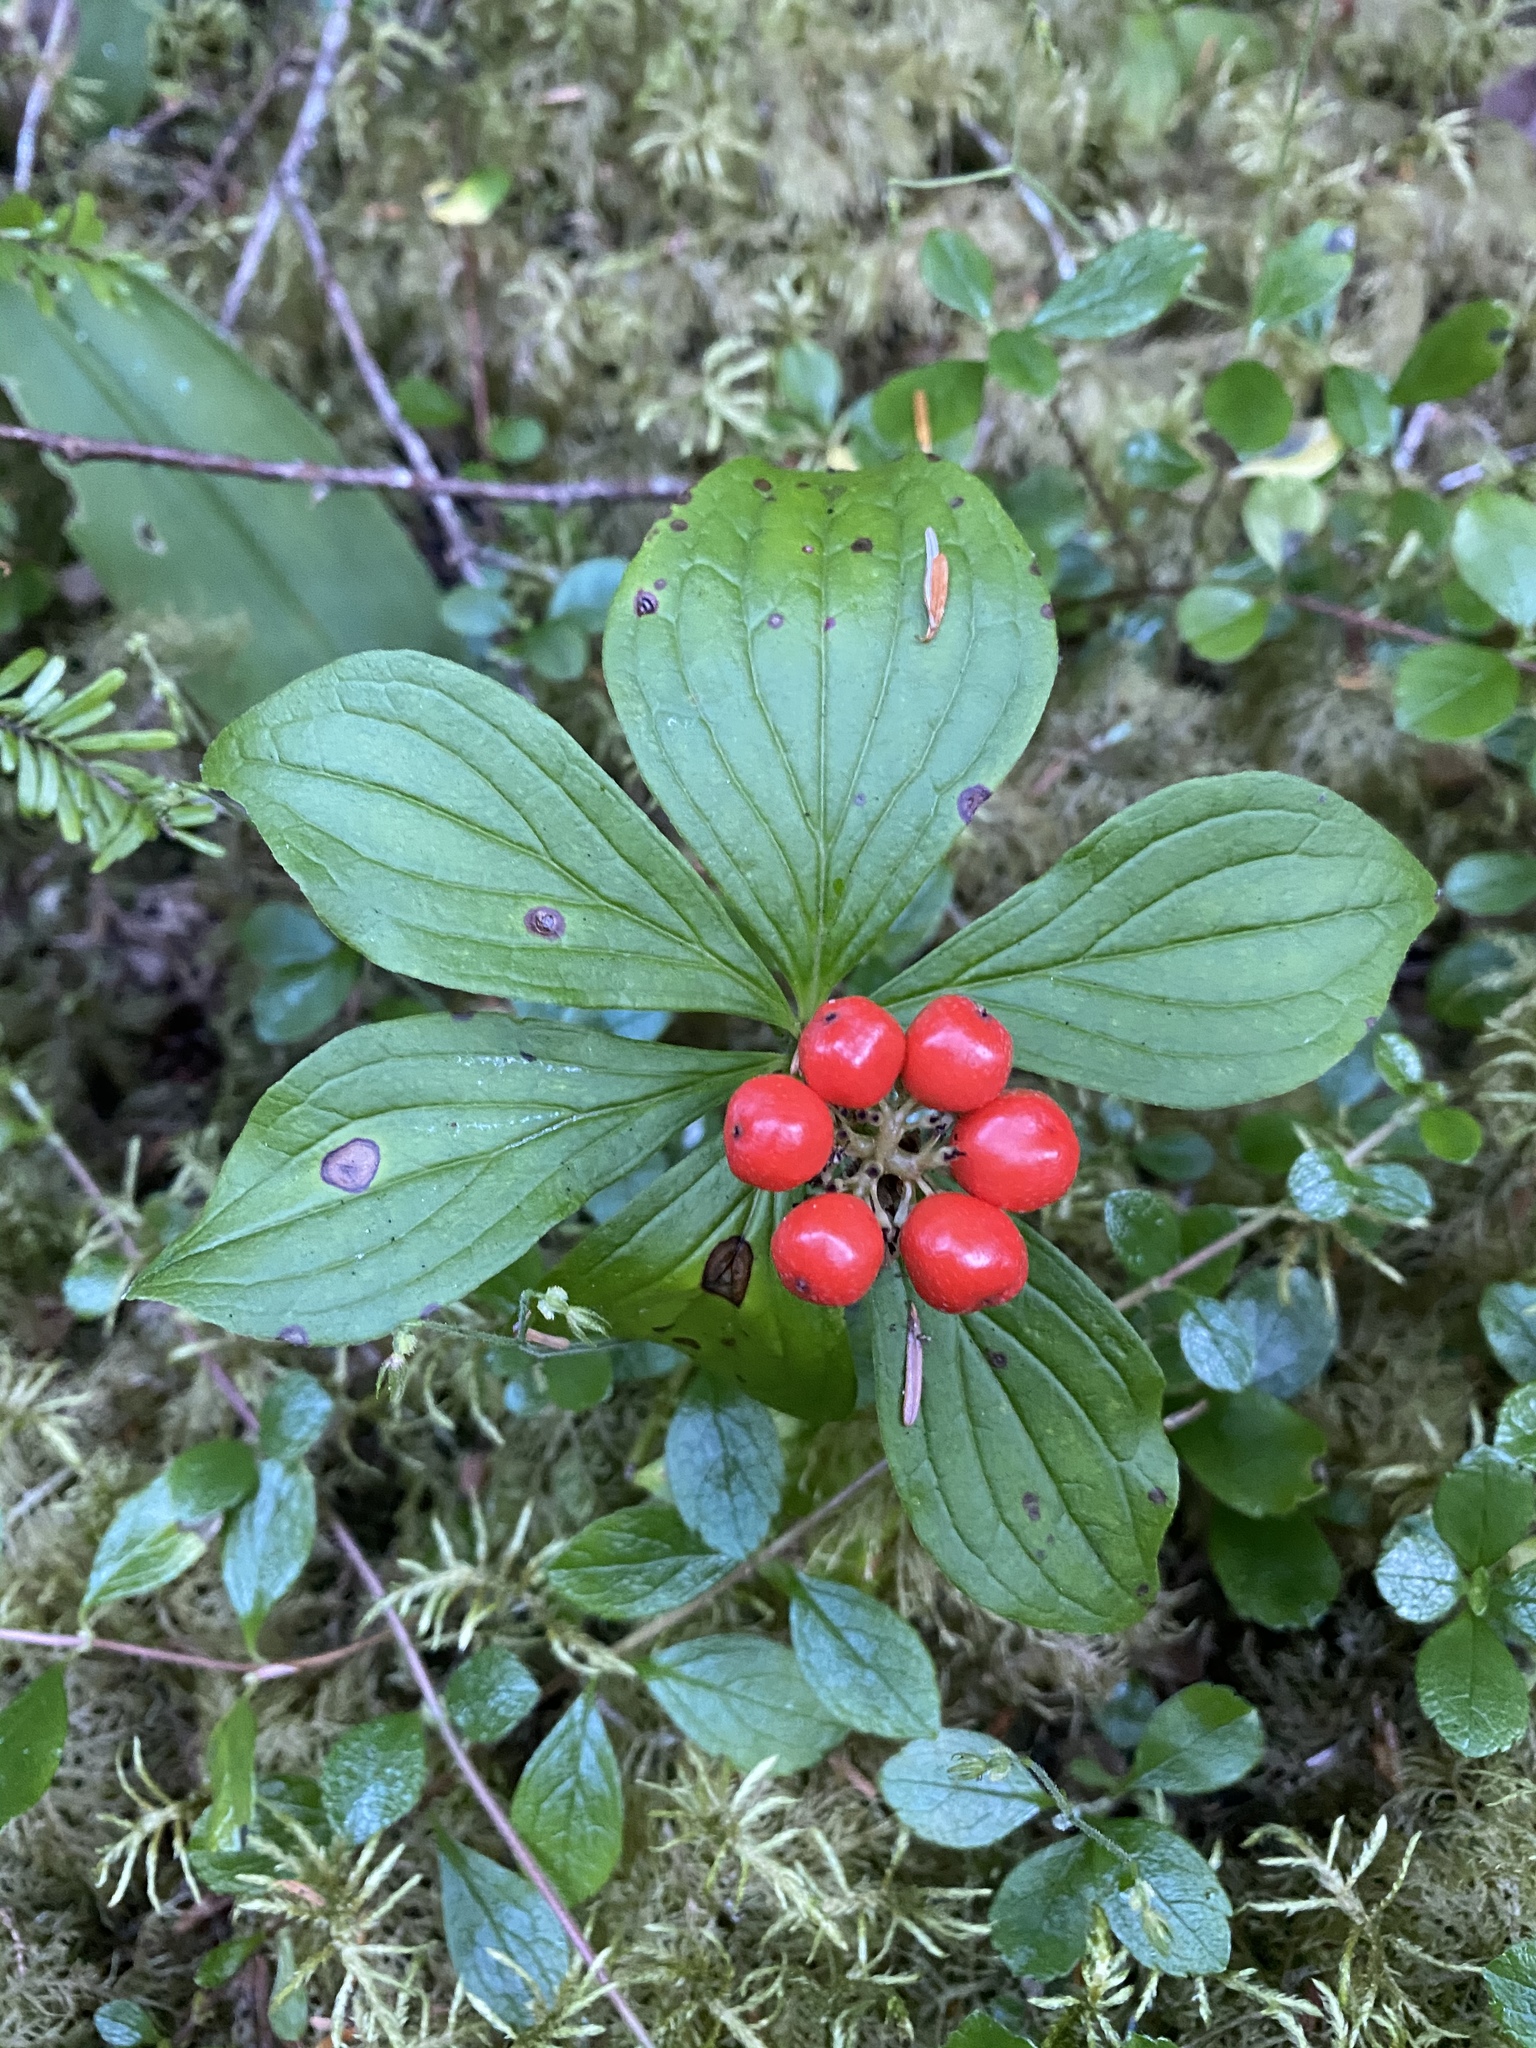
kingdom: Plantae
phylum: Tracheophyta
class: Magnoliopsida
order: Cornales
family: Cornaceae
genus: Cornus
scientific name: Cornus unalaschkensis
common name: Alaska bunchberry
